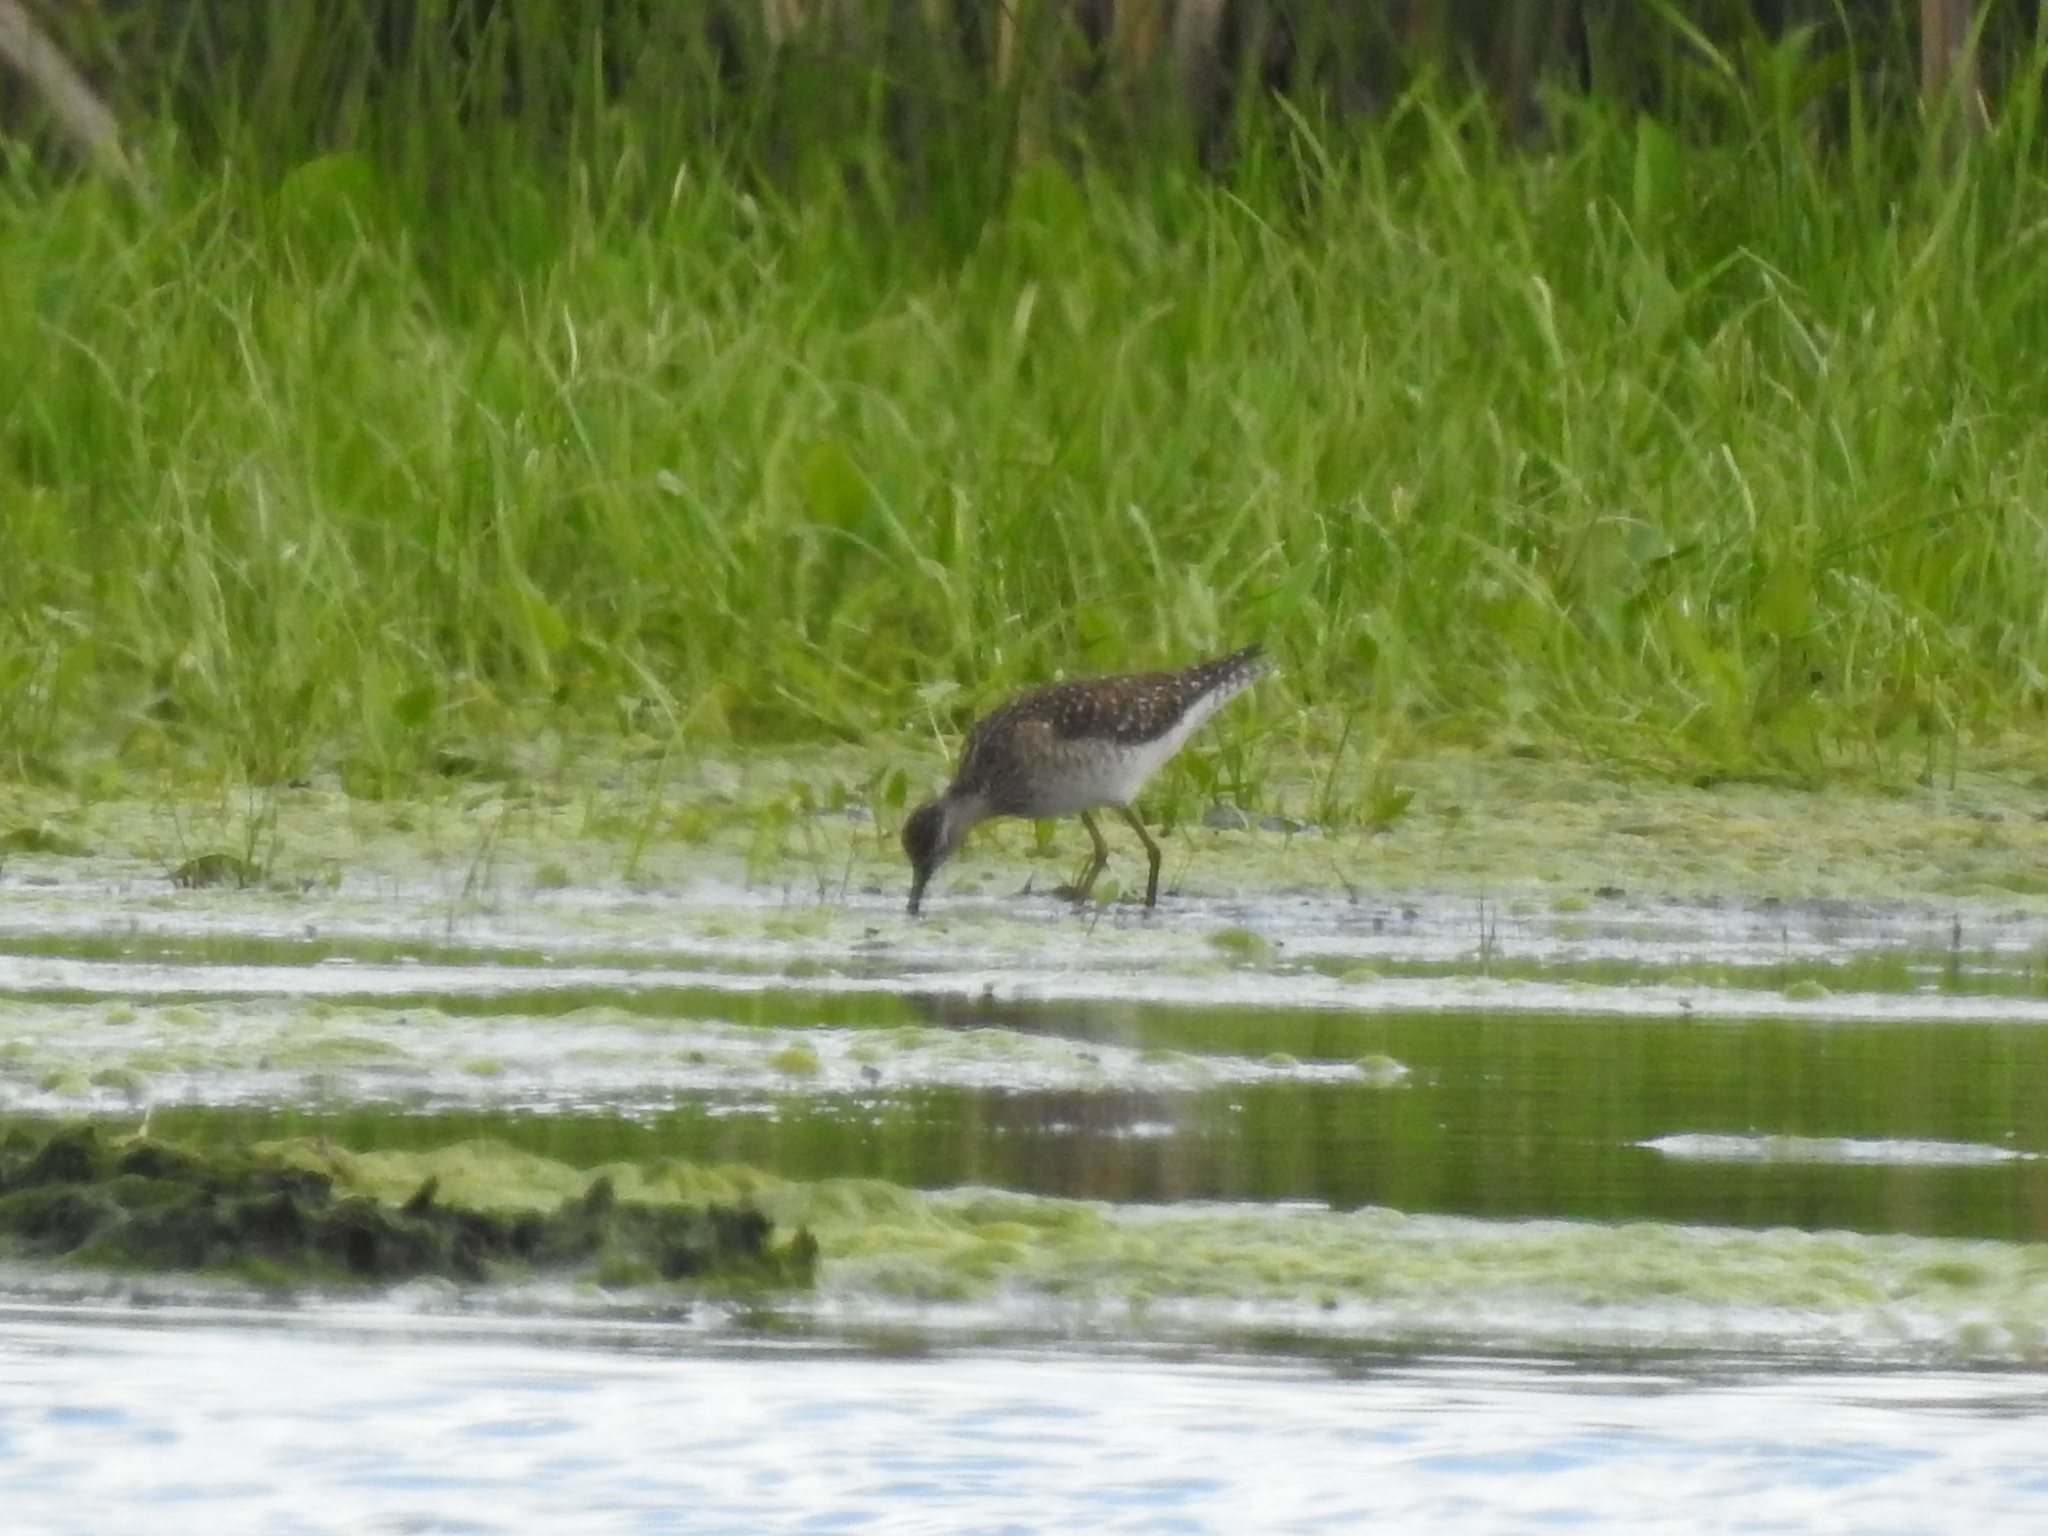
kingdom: Animalia
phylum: Chordata
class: Aves
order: Charadriiformes
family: Scolopacidae
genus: Tringa
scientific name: Tringa glareola
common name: Wood sandpiper
